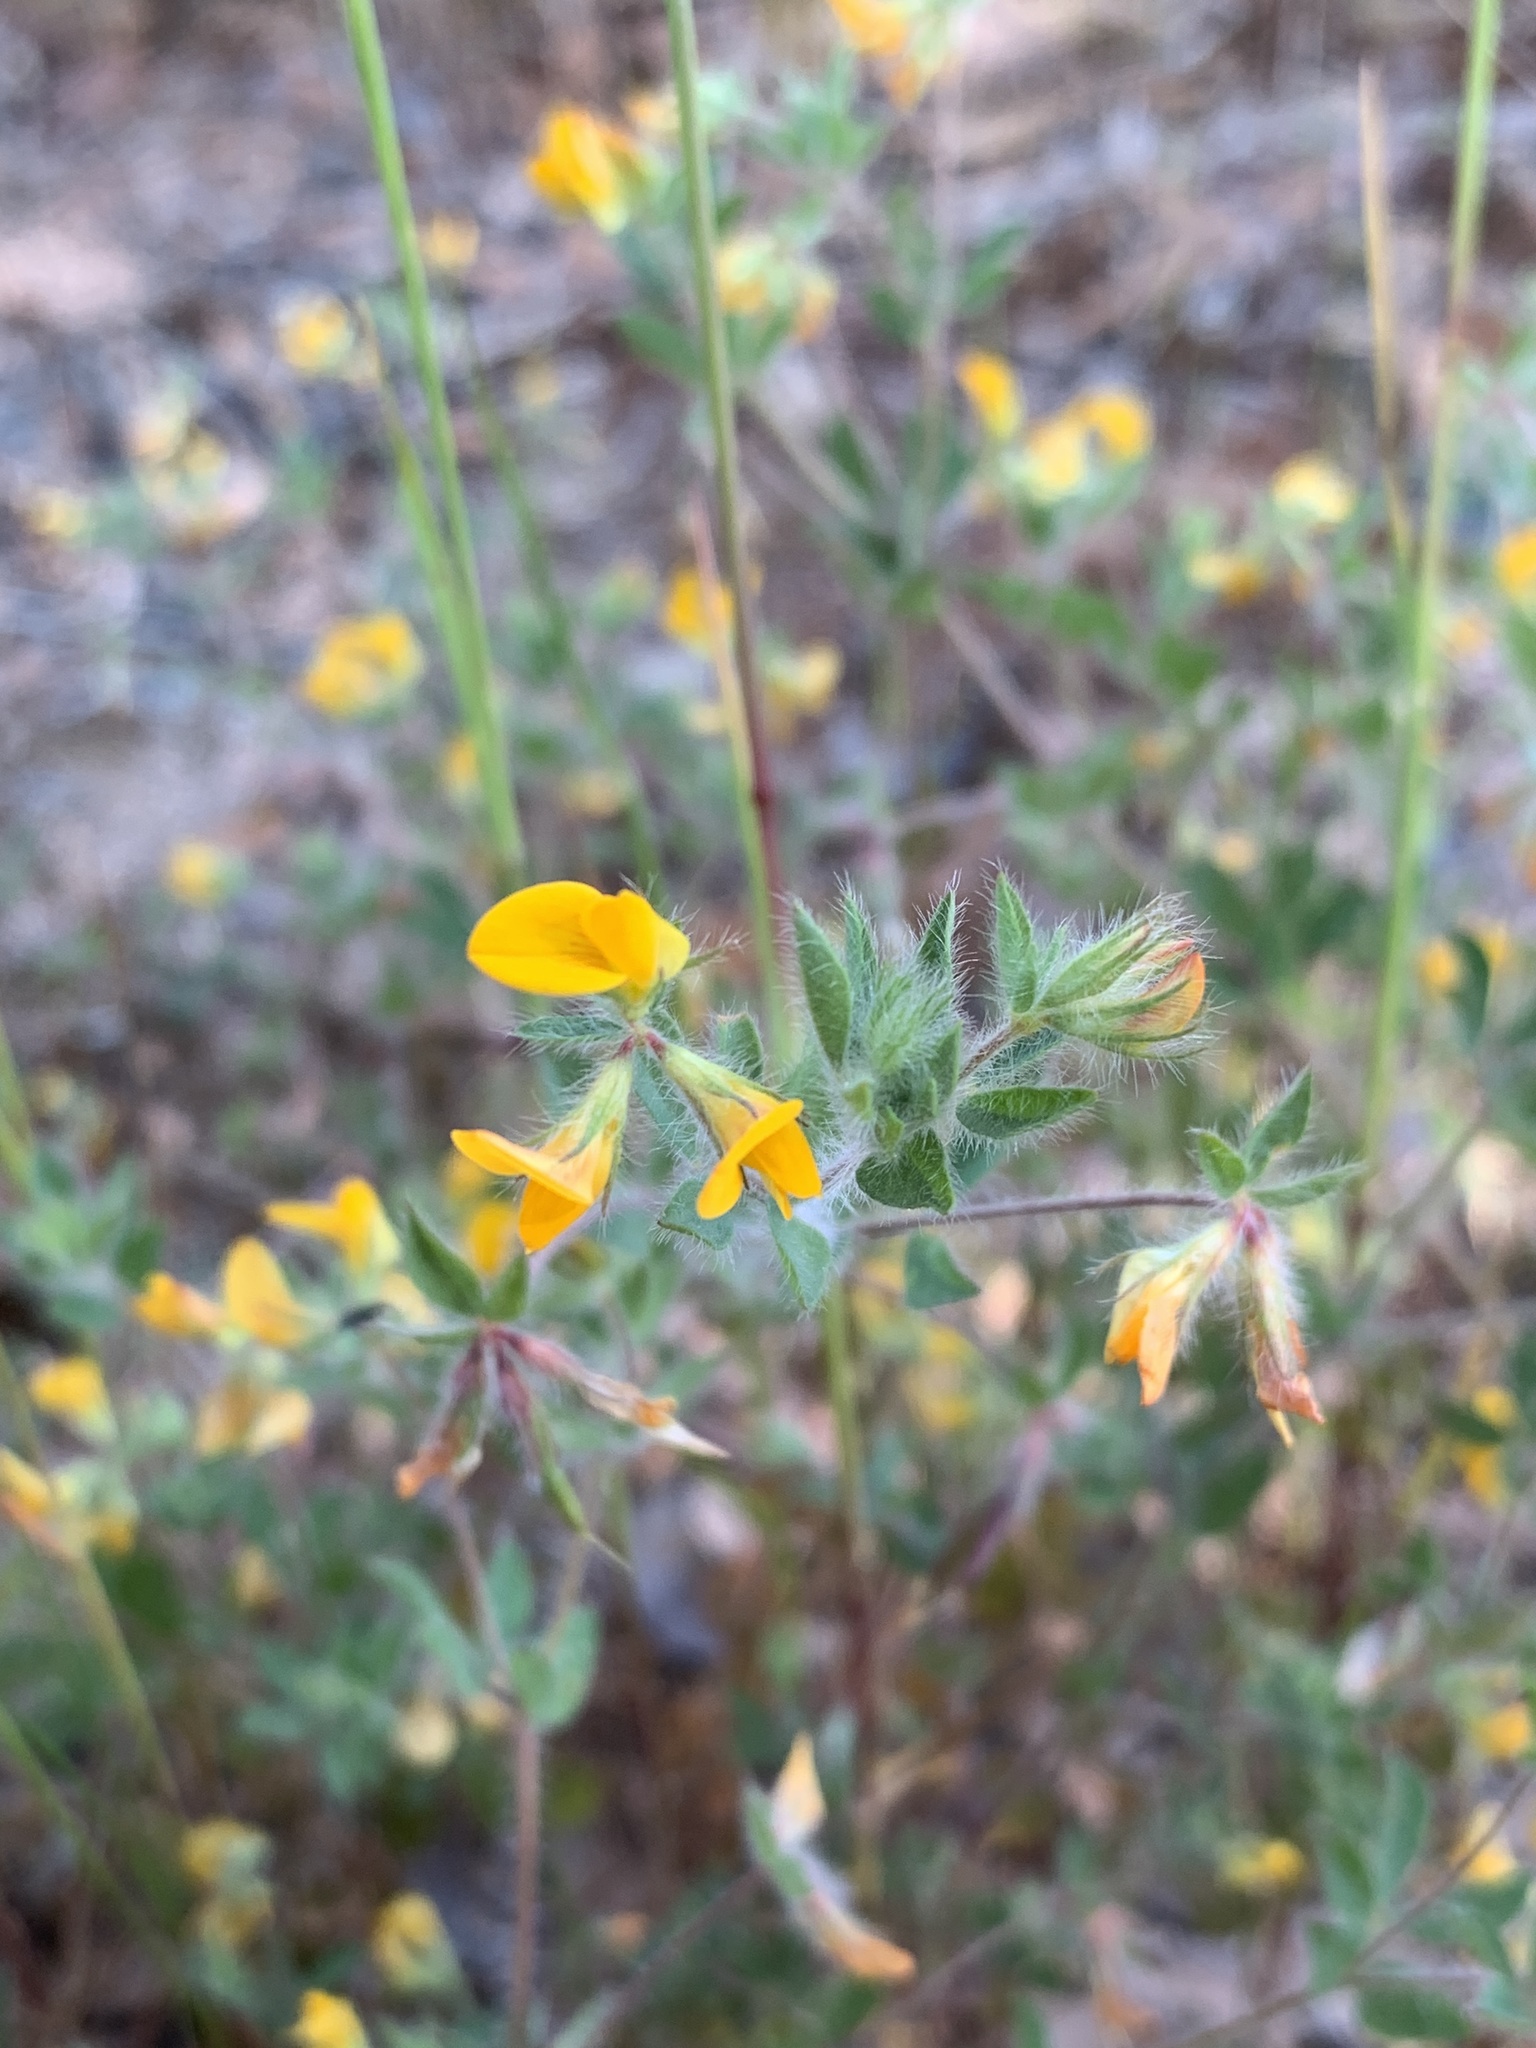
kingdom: Plantae
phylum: Tracheophyta
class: Magnoliopsida
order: Fabales
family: Fabaceae
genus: Lotus
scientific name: Lotus subbiflorus
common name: Hairy bird's-foot trefoil
